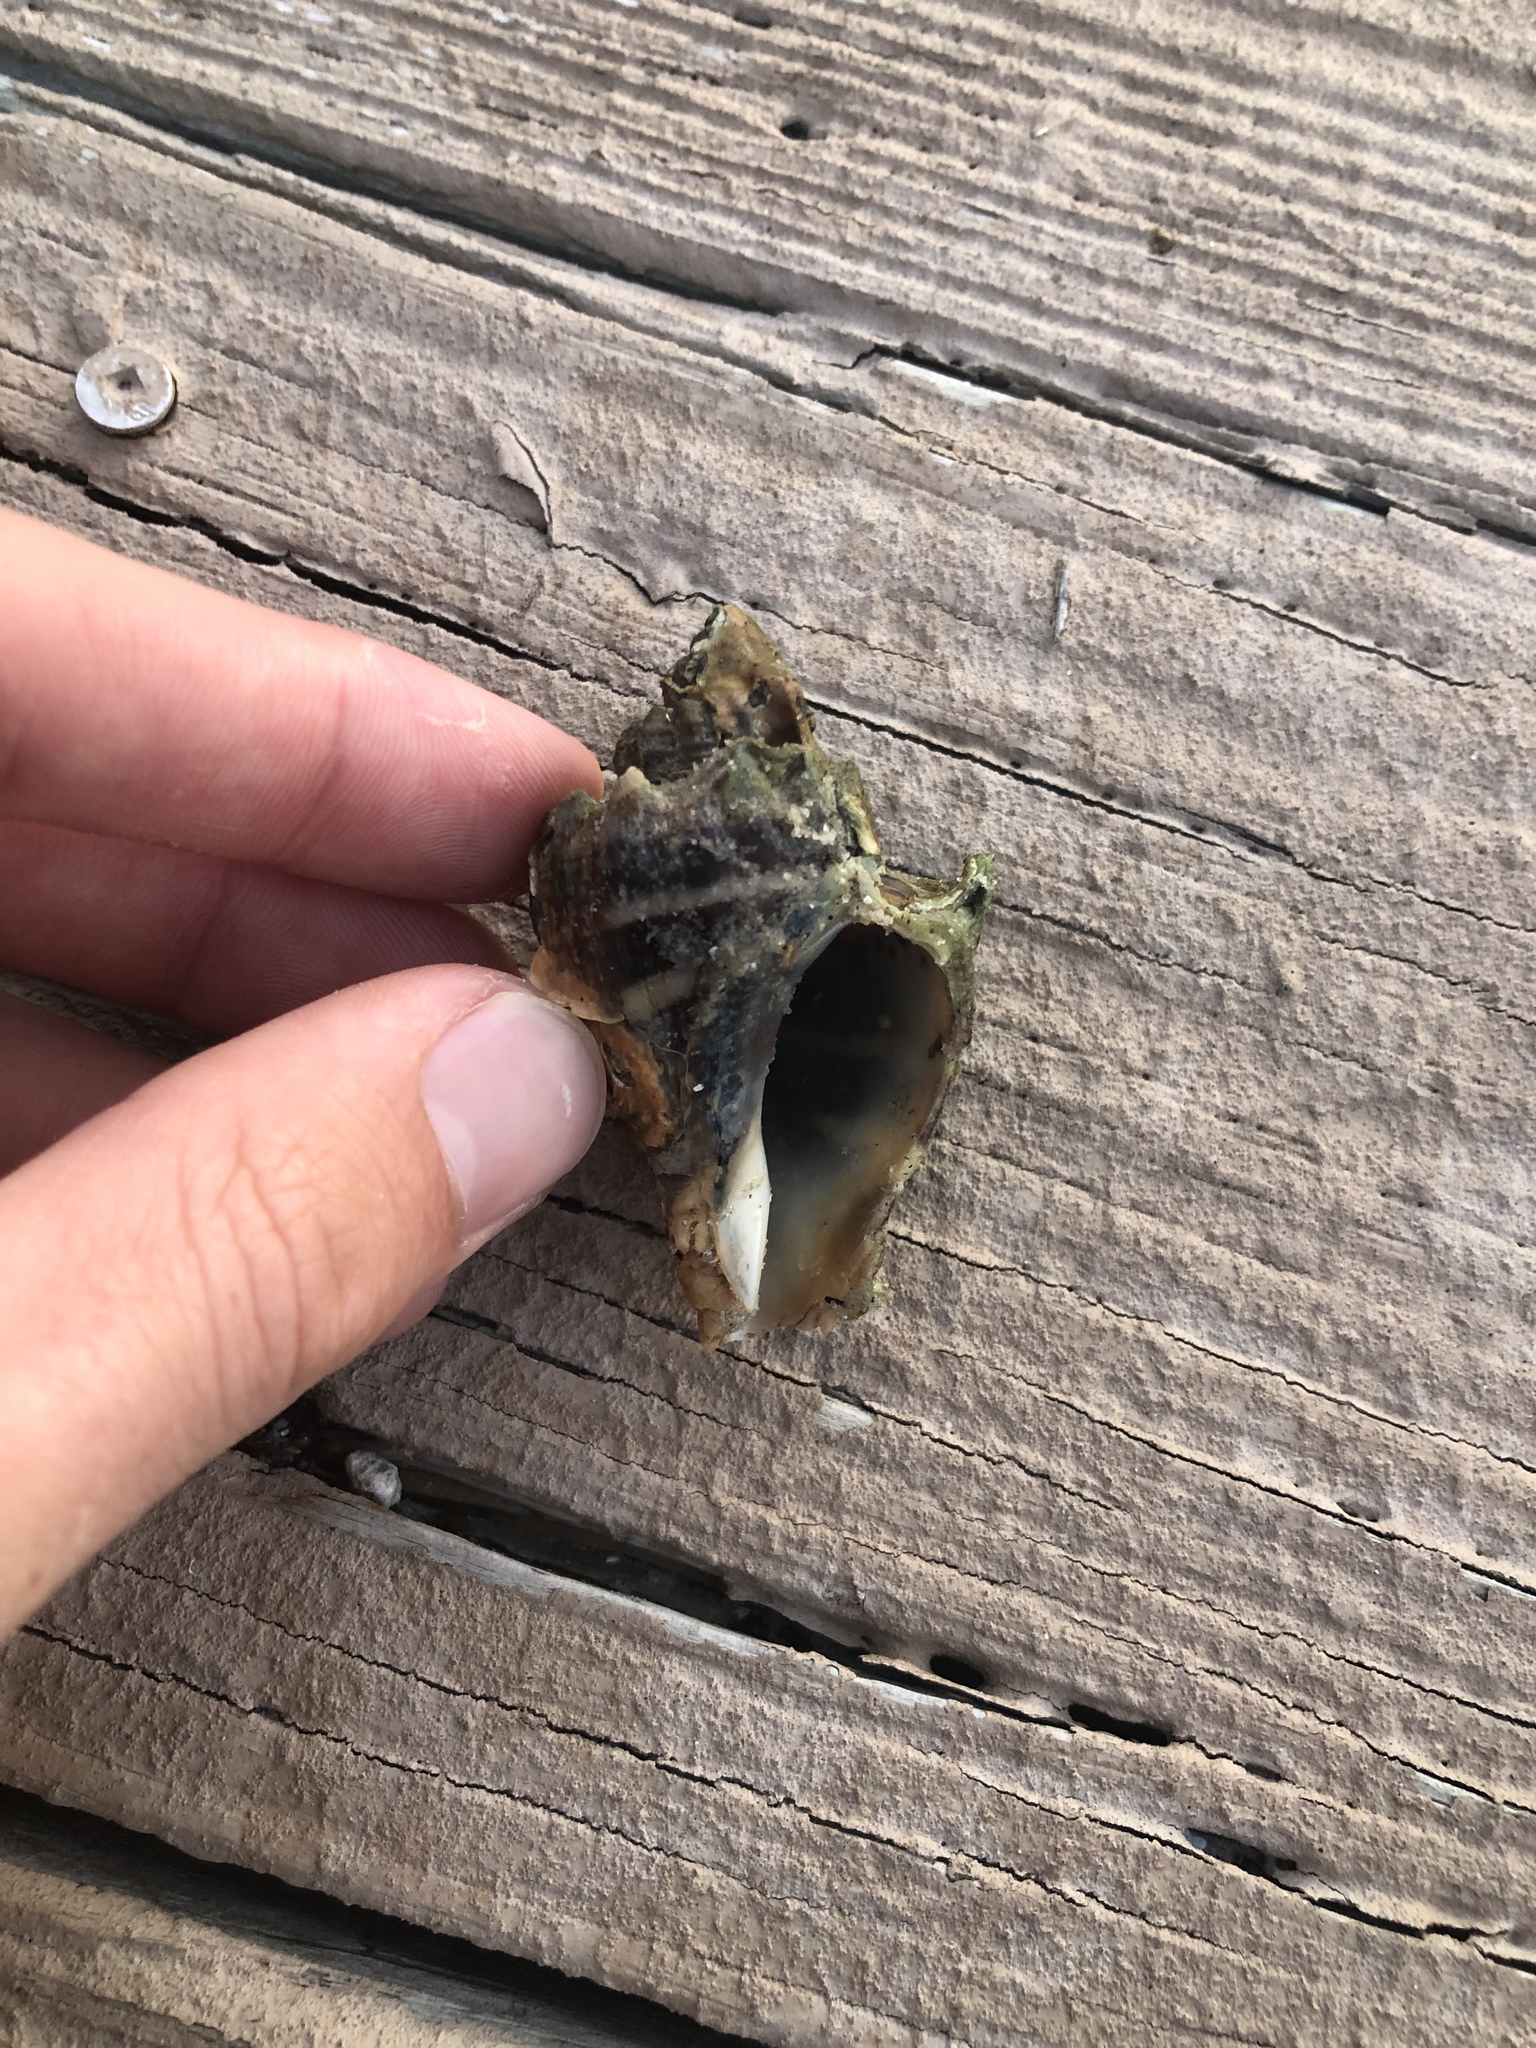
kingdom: Animalia
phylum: Mollusca
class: Gastropoda
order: Neogastropoda
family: Melongenidae
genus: Melongena
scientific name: Melongena corona
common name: American crown conch
